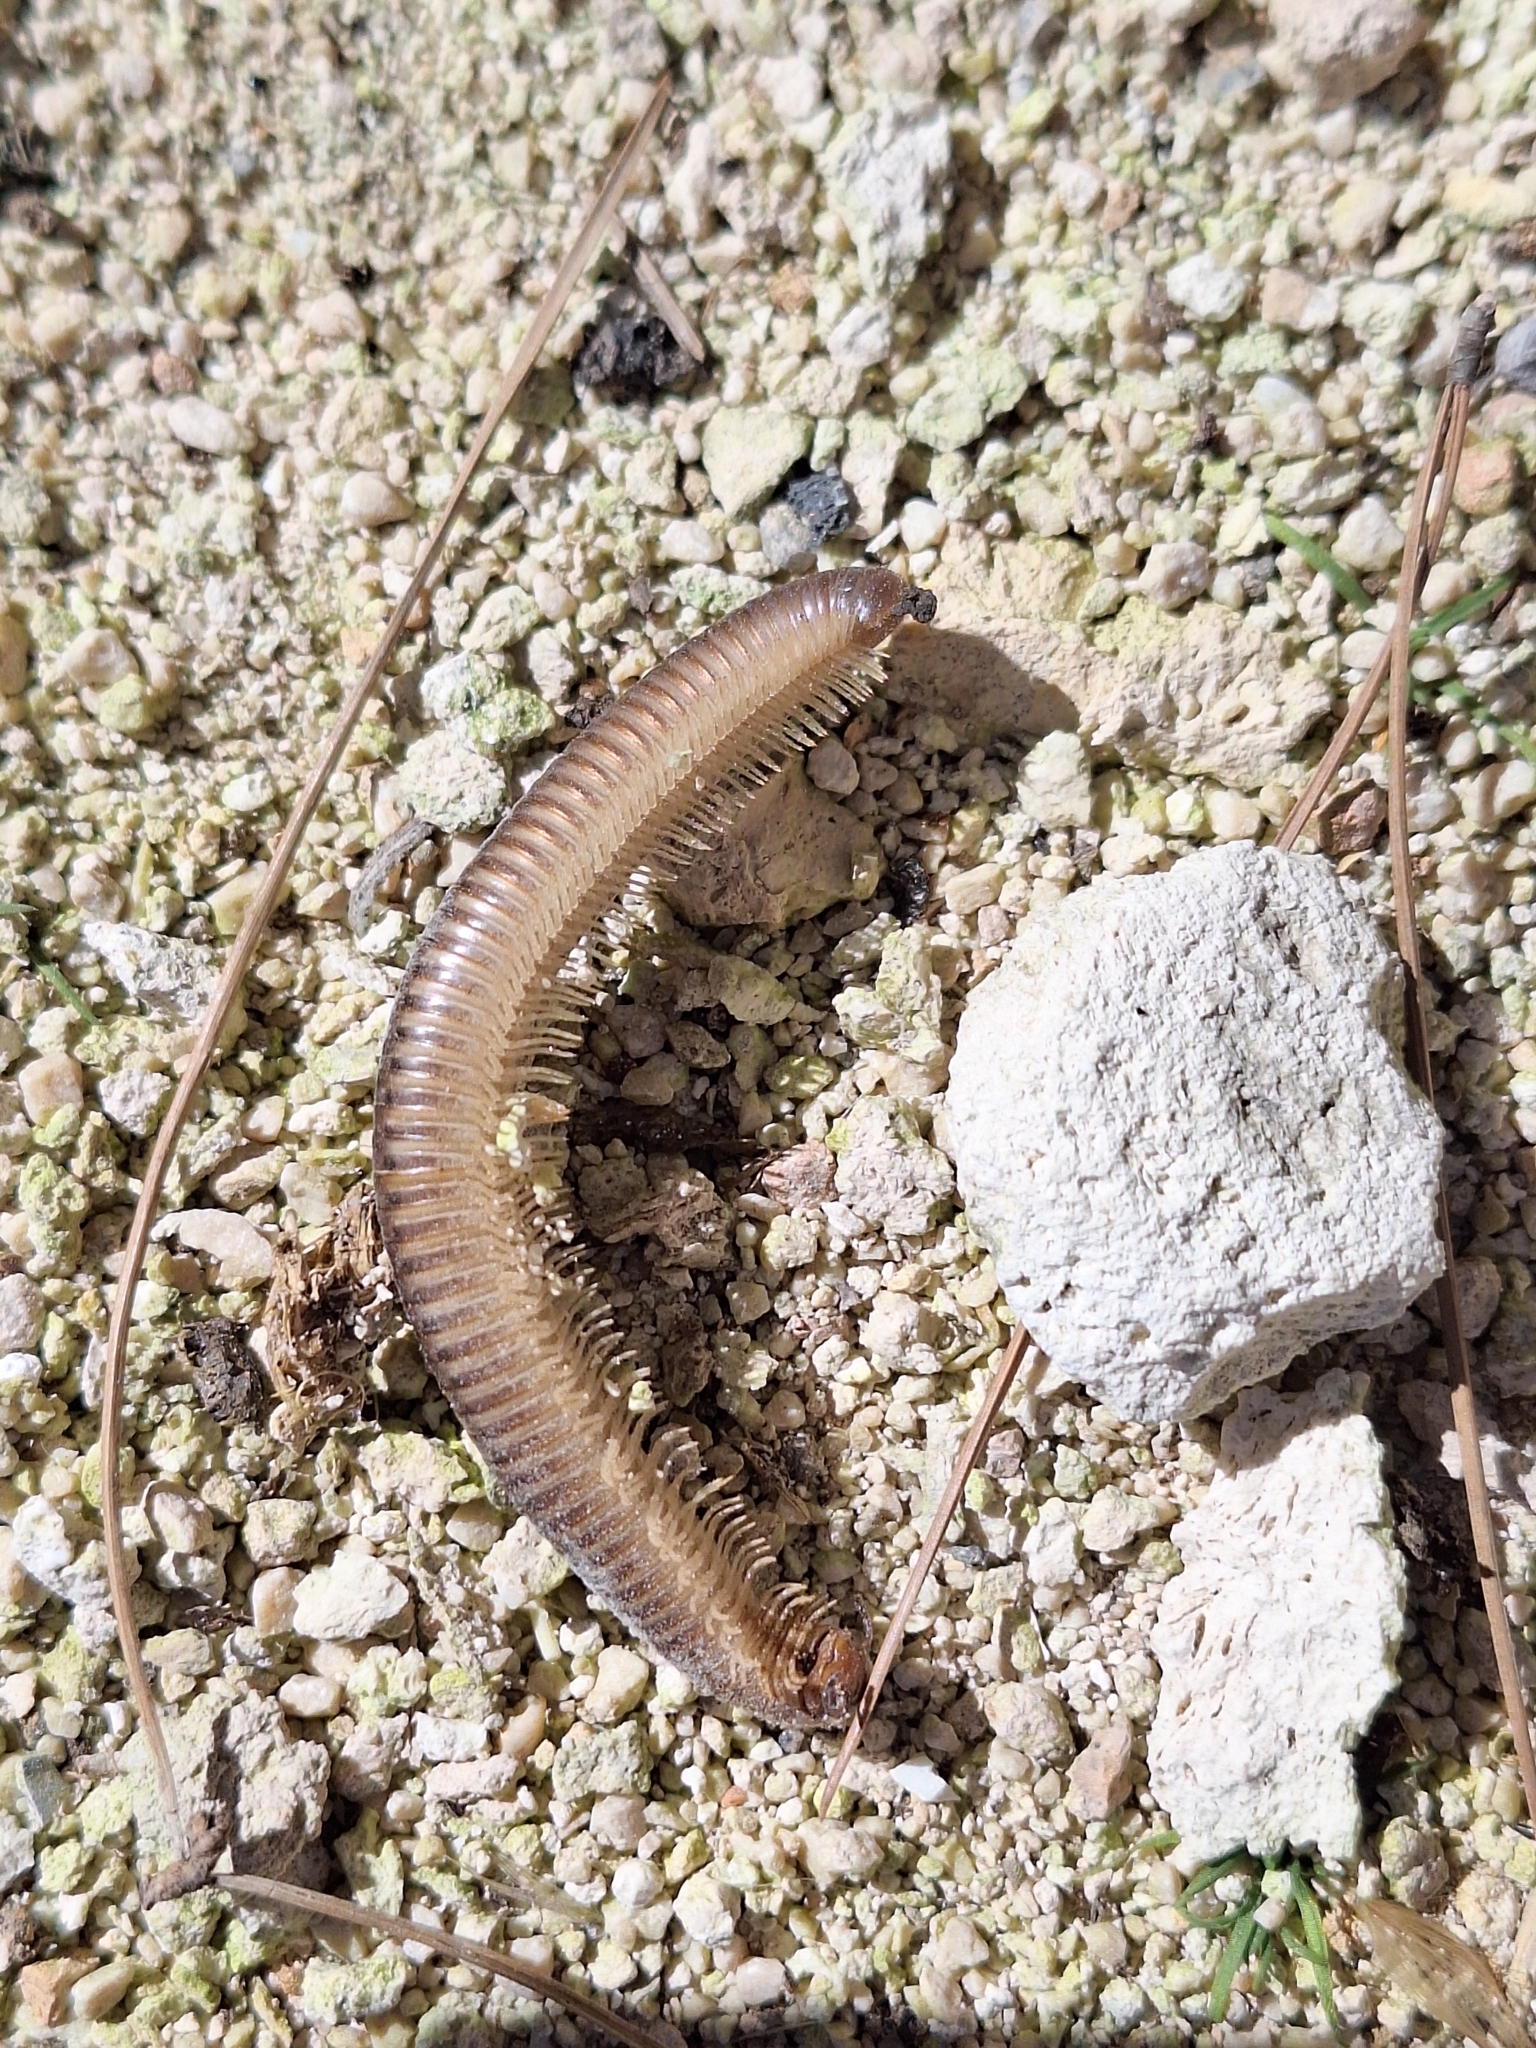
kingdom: Animalia
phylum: Arthropoda
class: Diplopoda
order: Julida
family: Julidae
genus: Pachyiulus
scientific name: Pachyiulus flavipes
